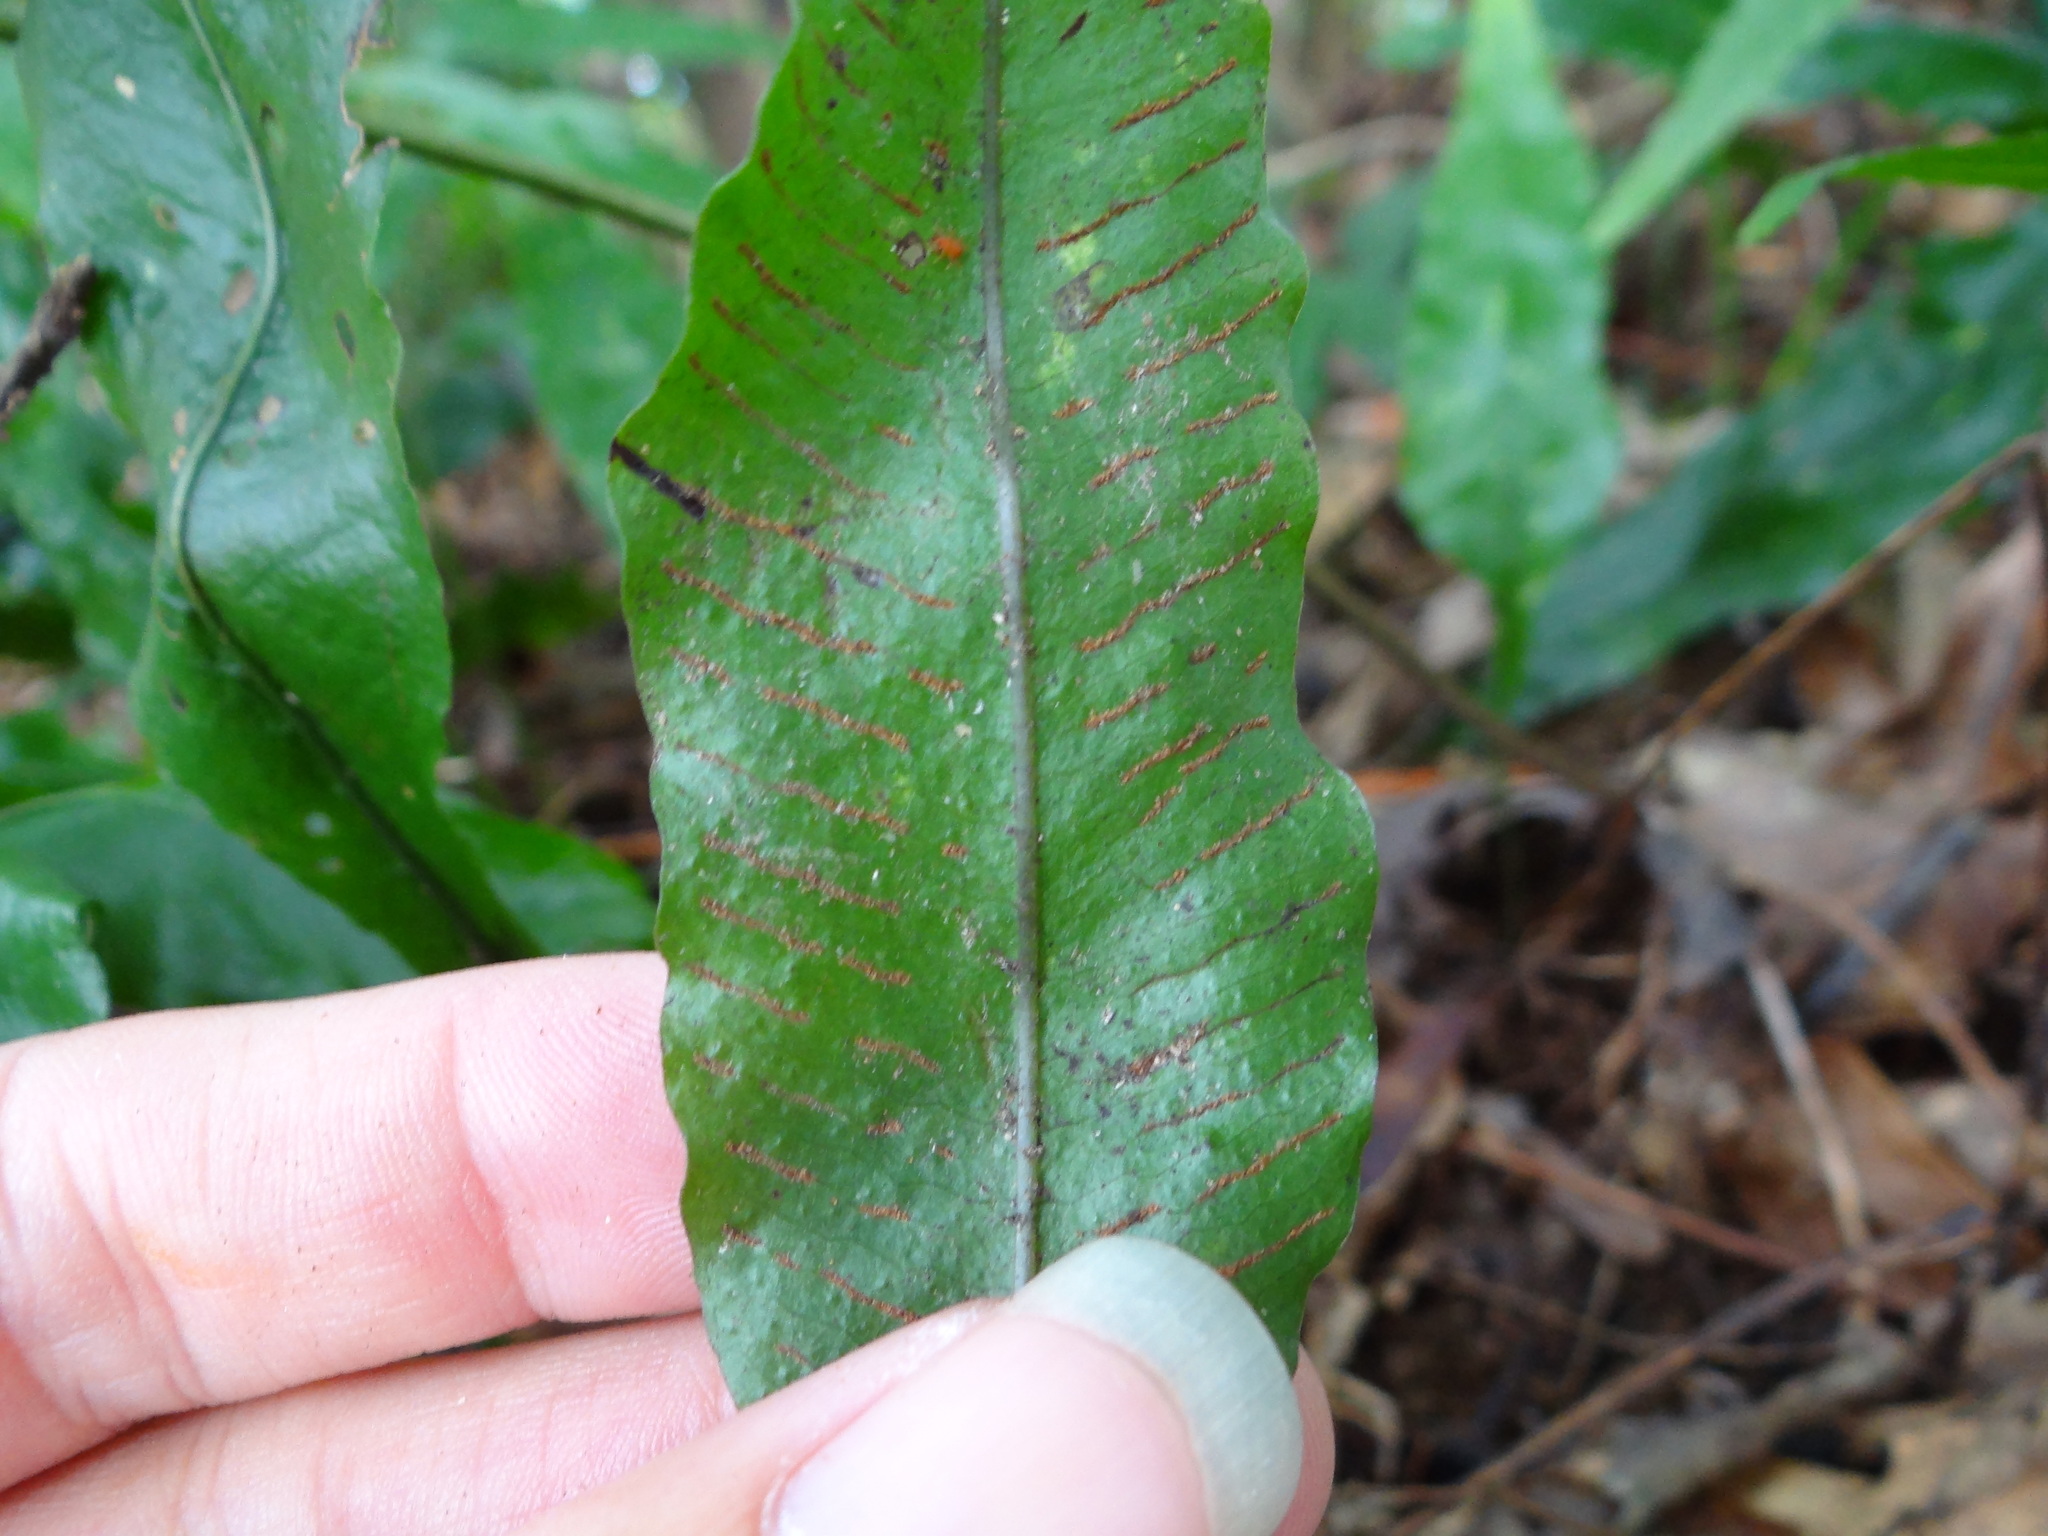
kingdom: Plantae
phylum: Tracheophyta
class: Polypodiopsida
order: Polypodiales
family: Polypodiaceae
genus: Leptochilus
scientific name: Leptochilus wrightii
